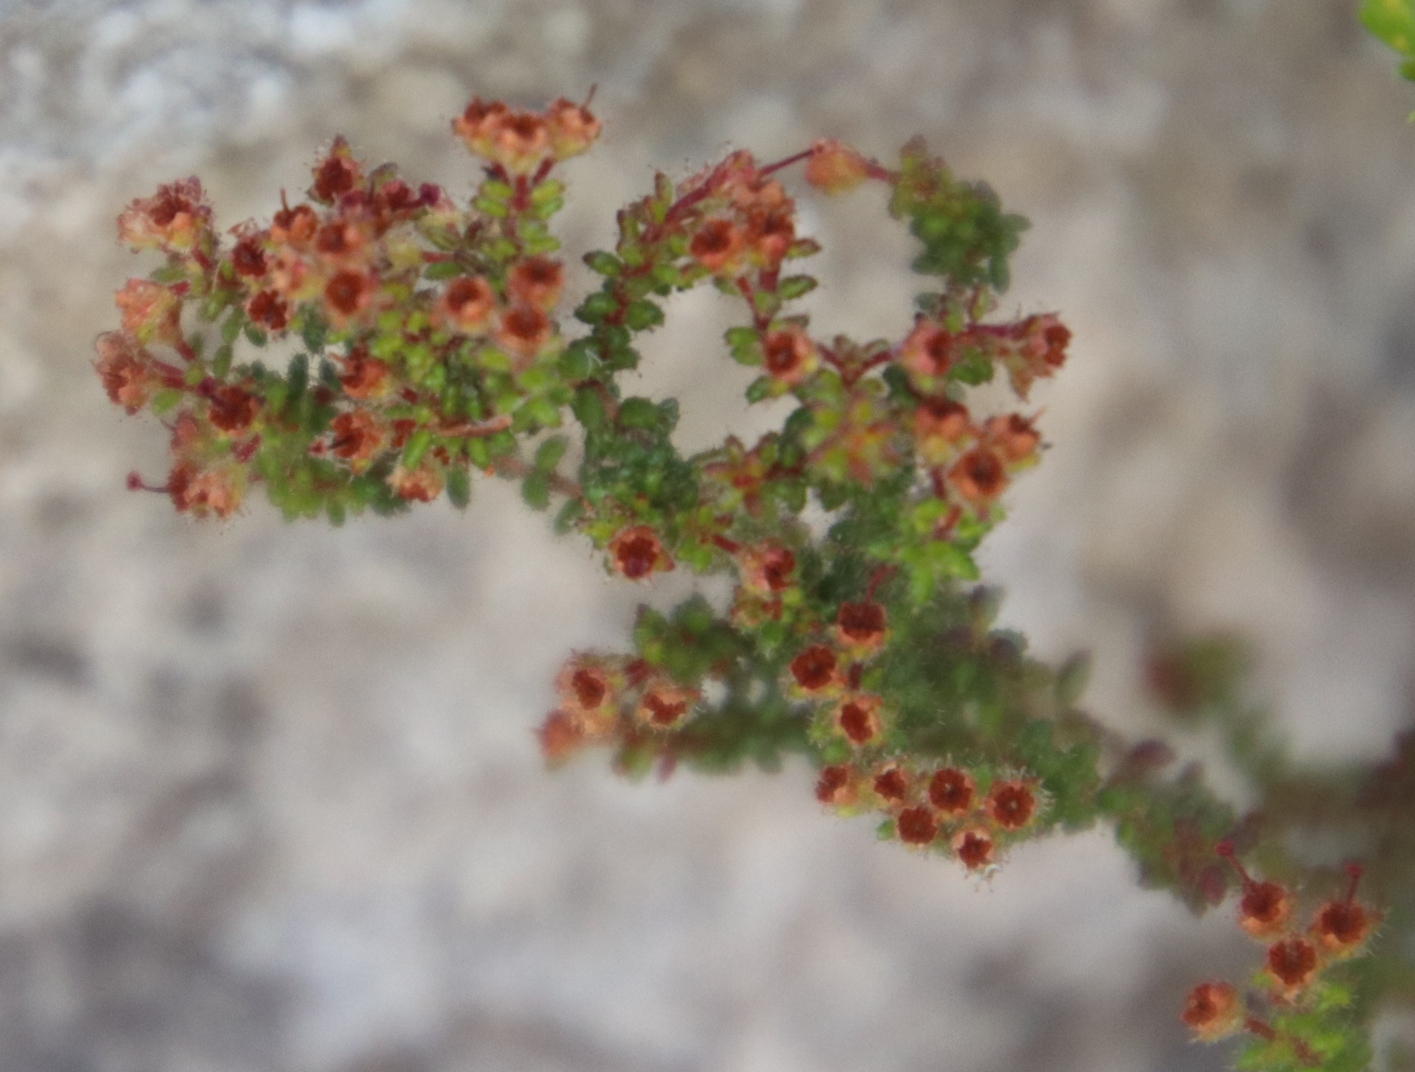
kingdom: Plantae
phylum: Tracheophyta
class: Magnoliopsida
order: Ericales
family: Ericaceae
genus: Erica
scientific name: Erica exleeana
